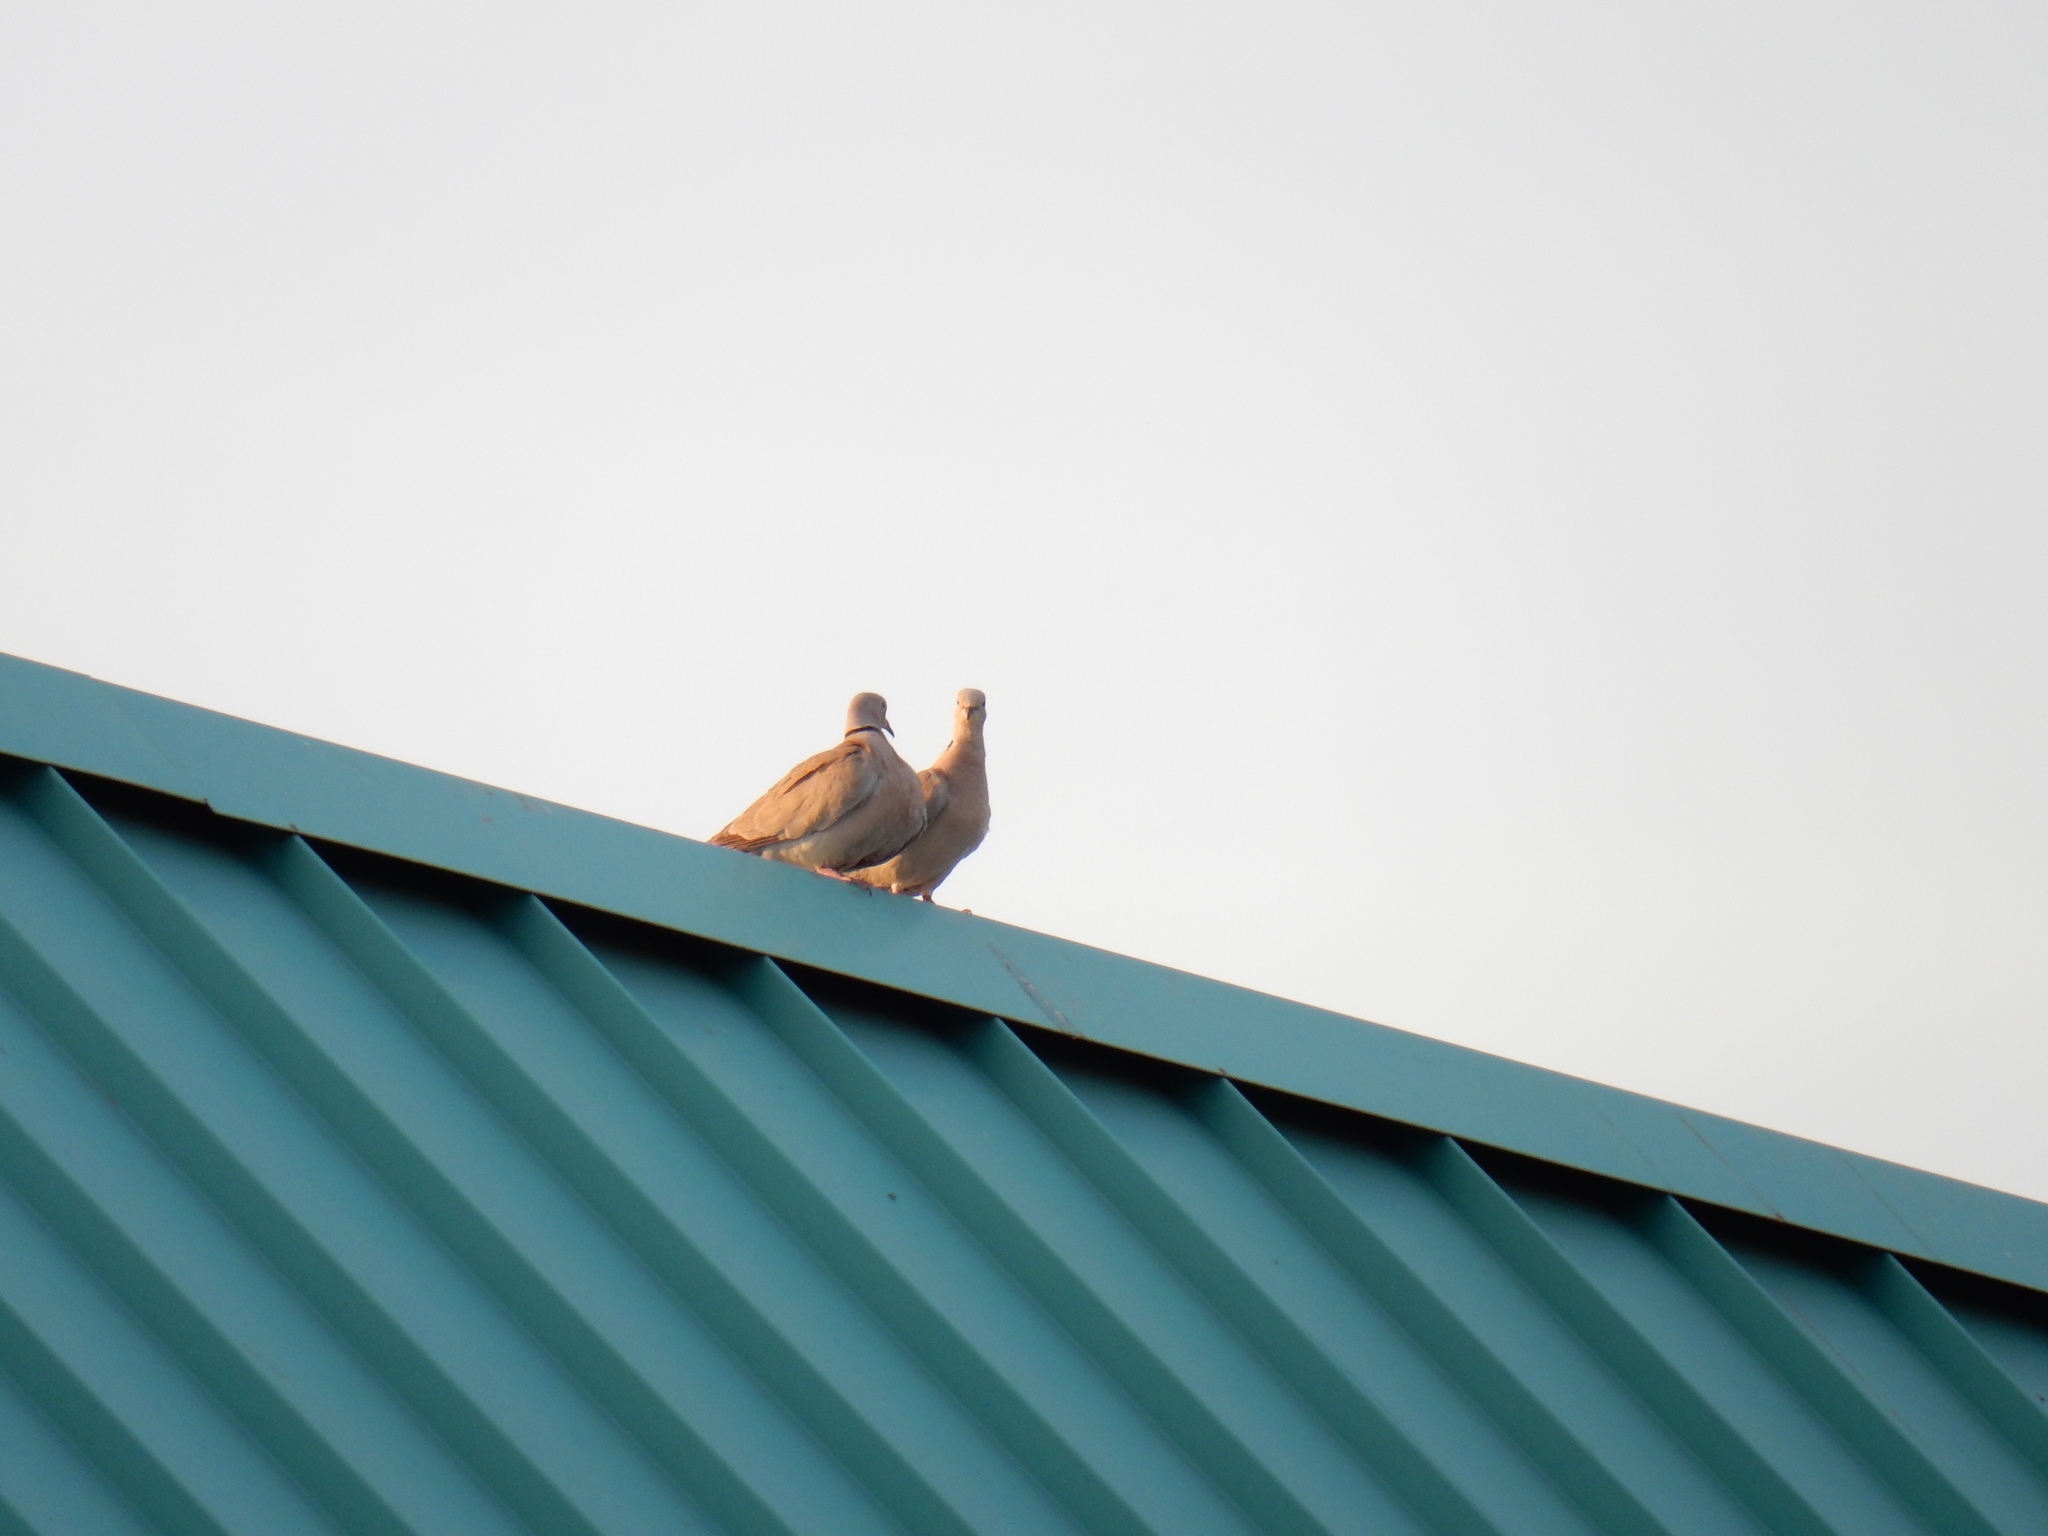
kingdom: Animalia
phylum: Chordata
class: Aves
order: Columbiformes
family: Columbidae
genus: Streptopelia
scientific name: Streptopelia decaocto
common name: Eurasian collared dove
